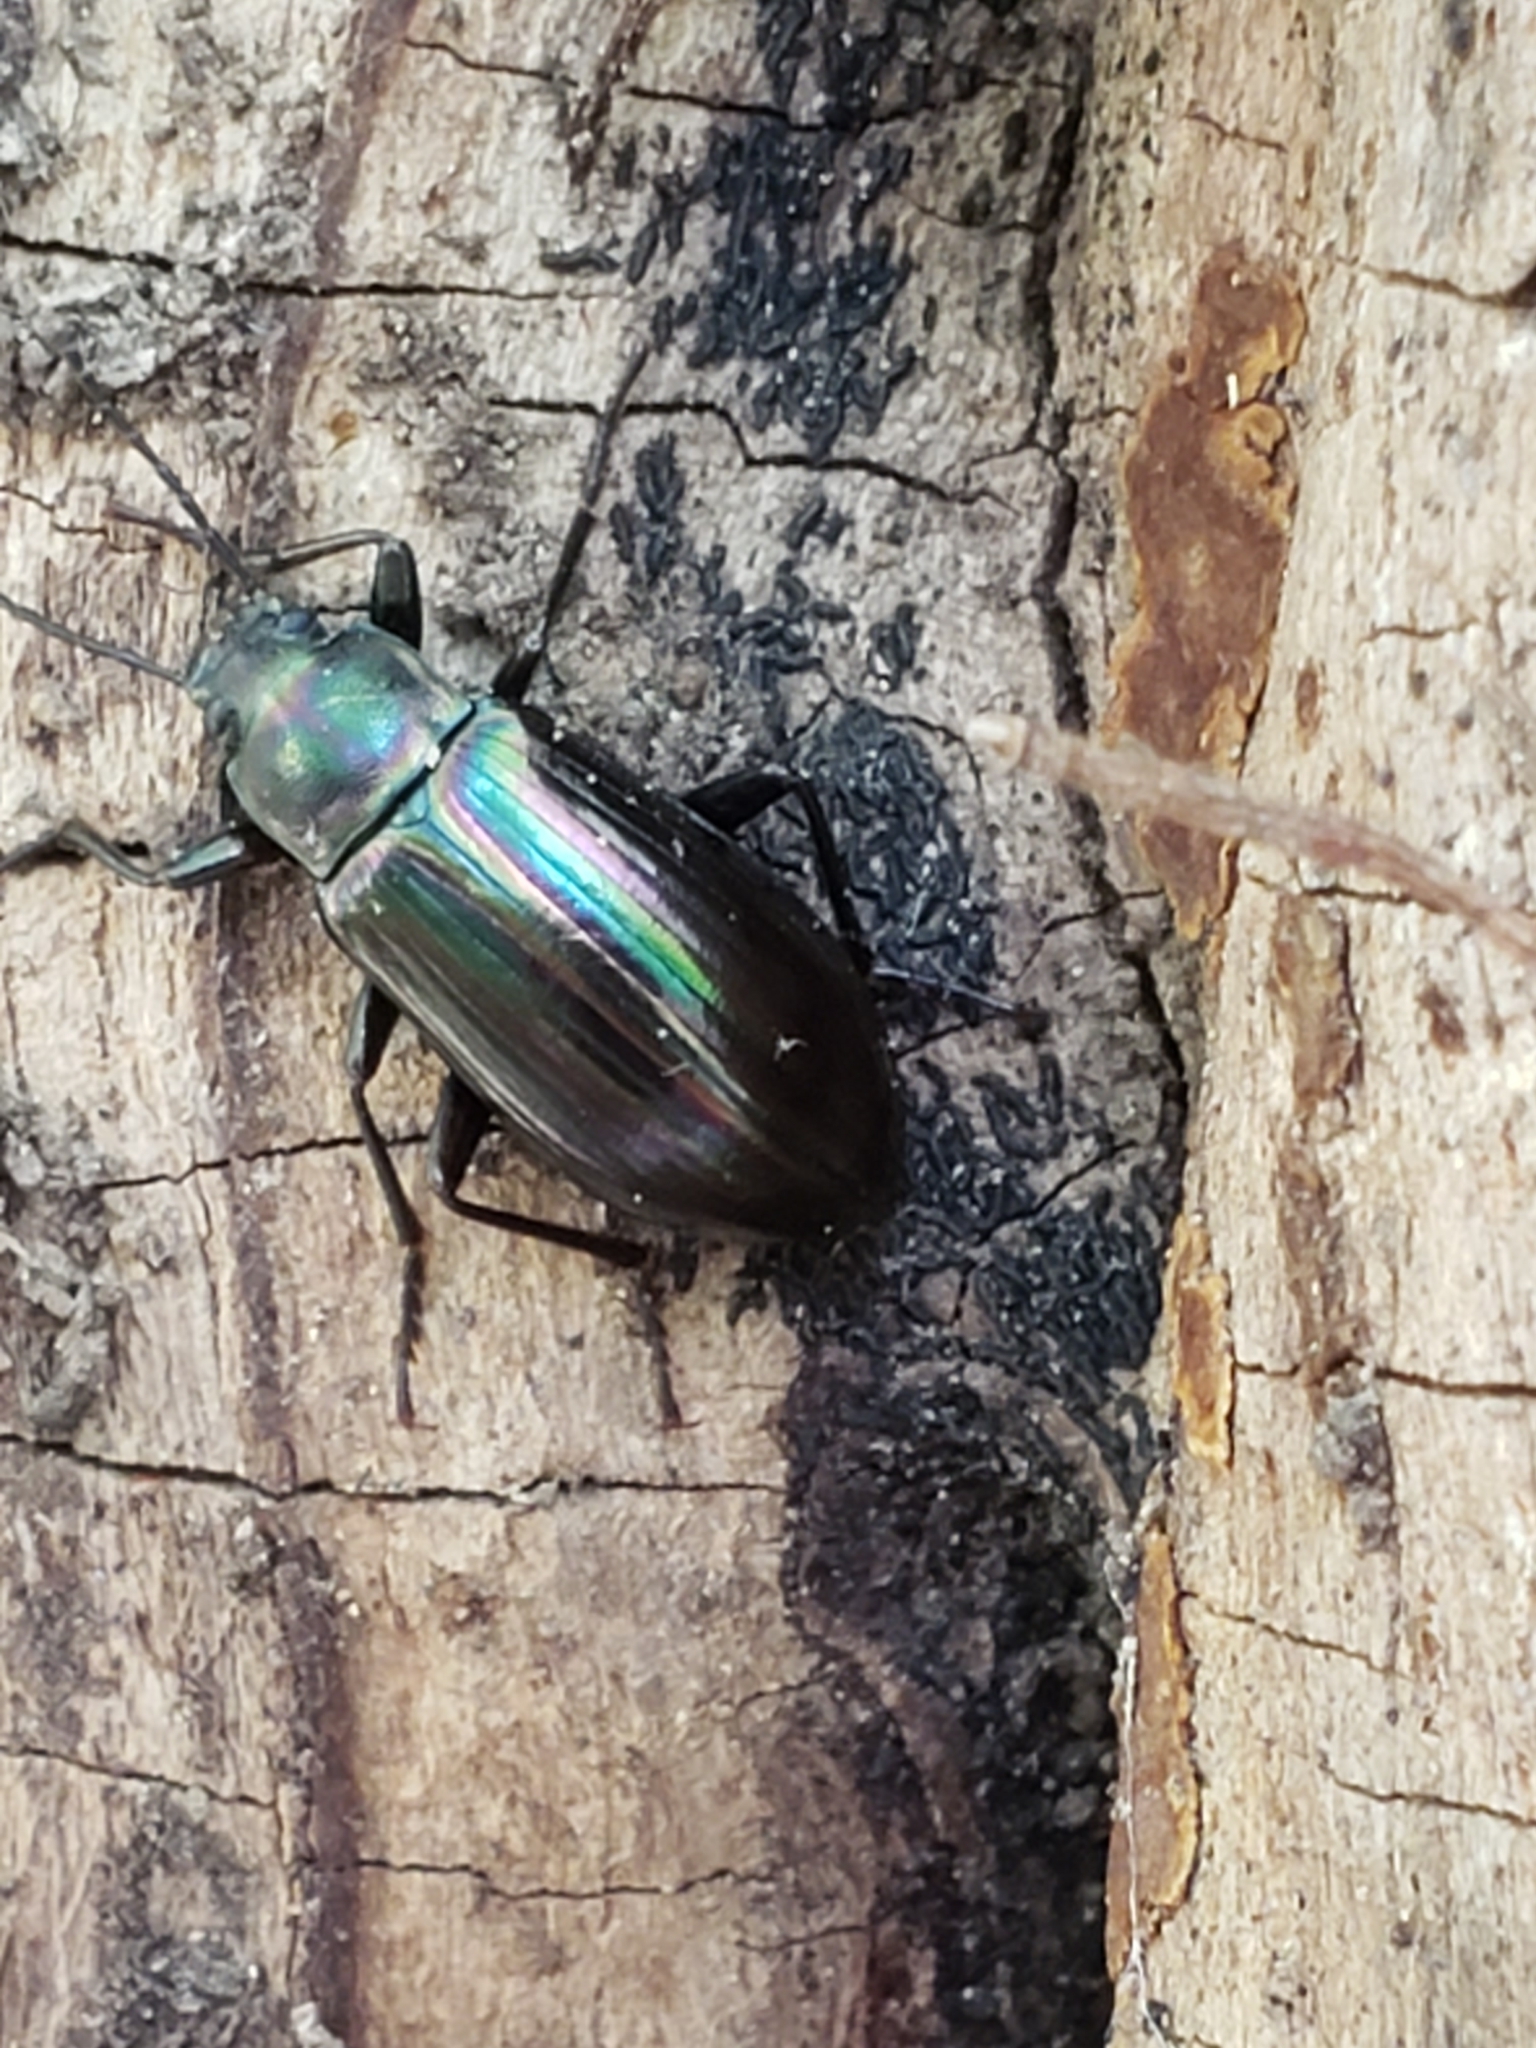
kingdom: Animalia
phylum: Arthropoda
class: Insecta
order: Coleoptera
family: Tenebrionidae
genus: Tarpela
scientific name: Tarpela micans
